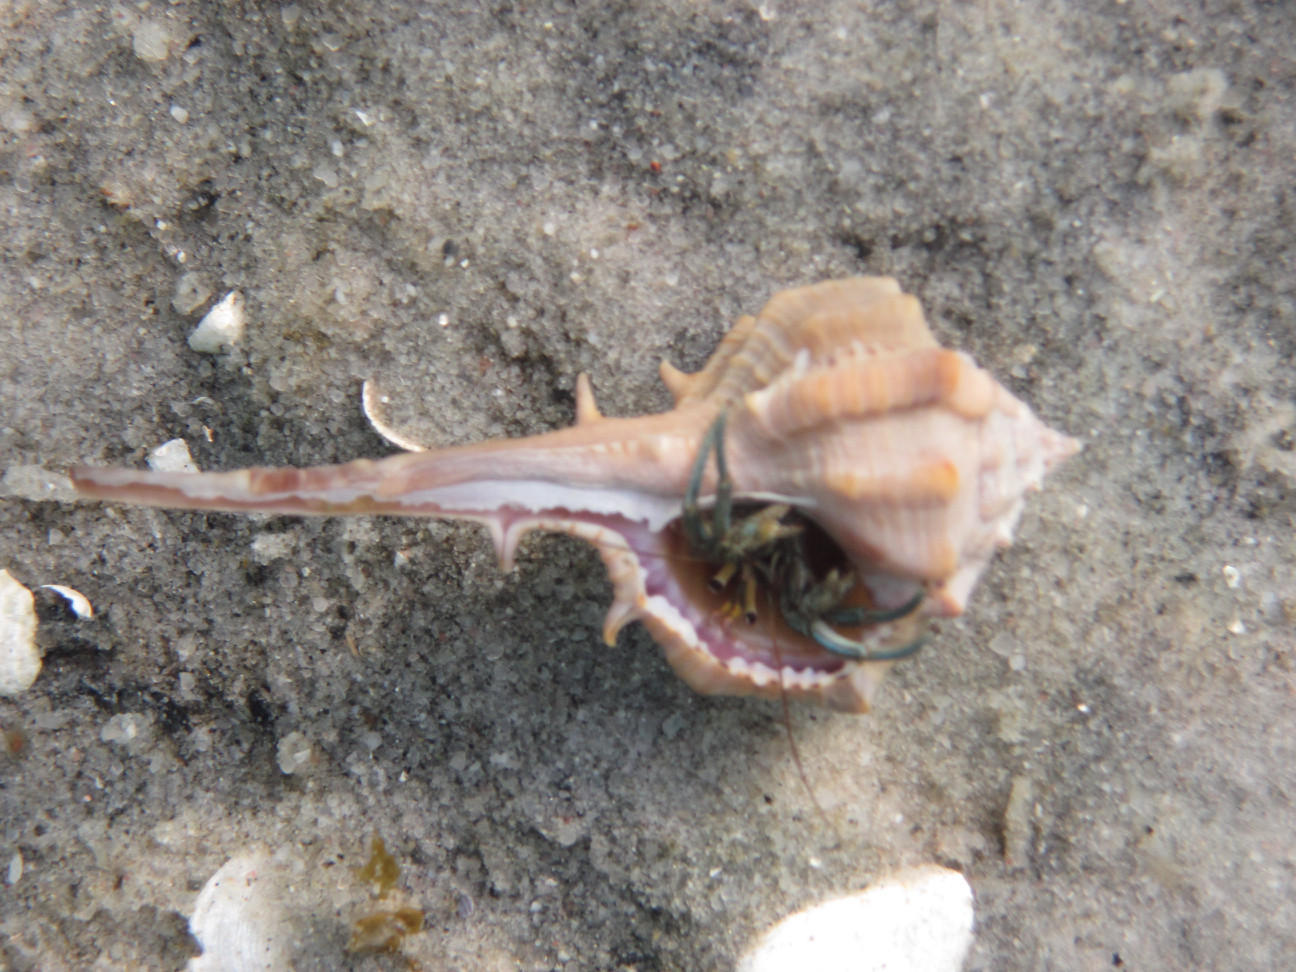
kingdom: Animalia
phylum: Arthropoda
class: Malacostraca
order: Decapoda
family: Diogenidae
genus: Clibanarius
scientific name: Clibanarius longitarsus
